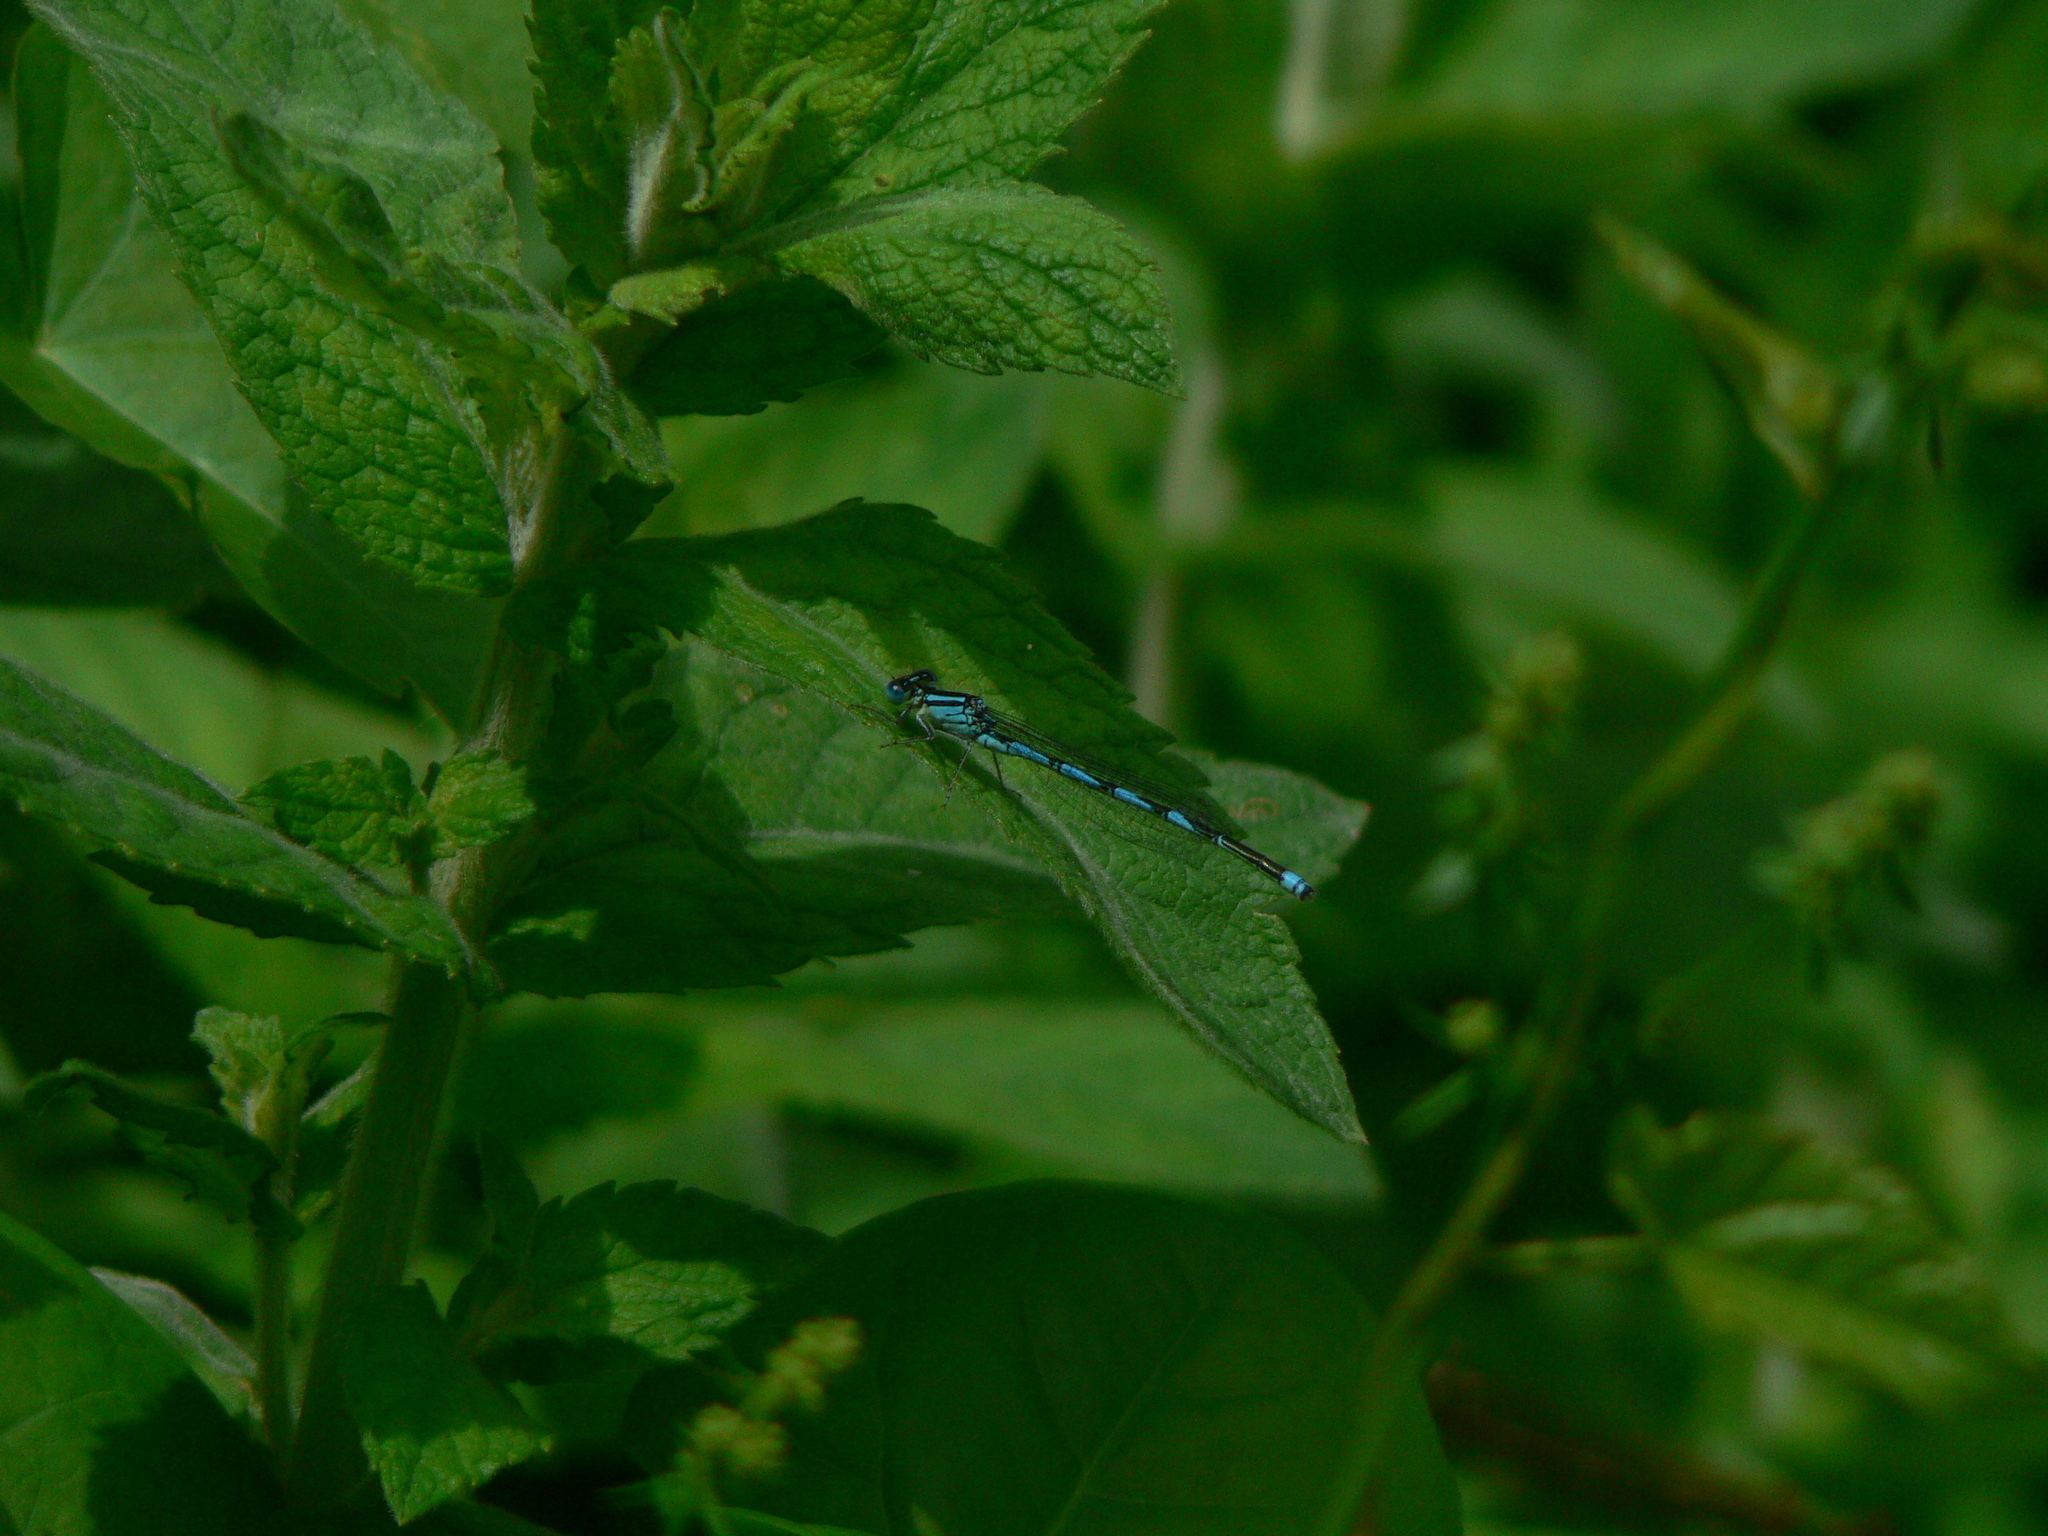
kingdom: Animalia
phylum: Arthropoda
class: Insecta
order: Odonata
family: Coenagrionidae
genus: Erythromma
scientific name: Erythromma lindenii
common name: Blue-eye
